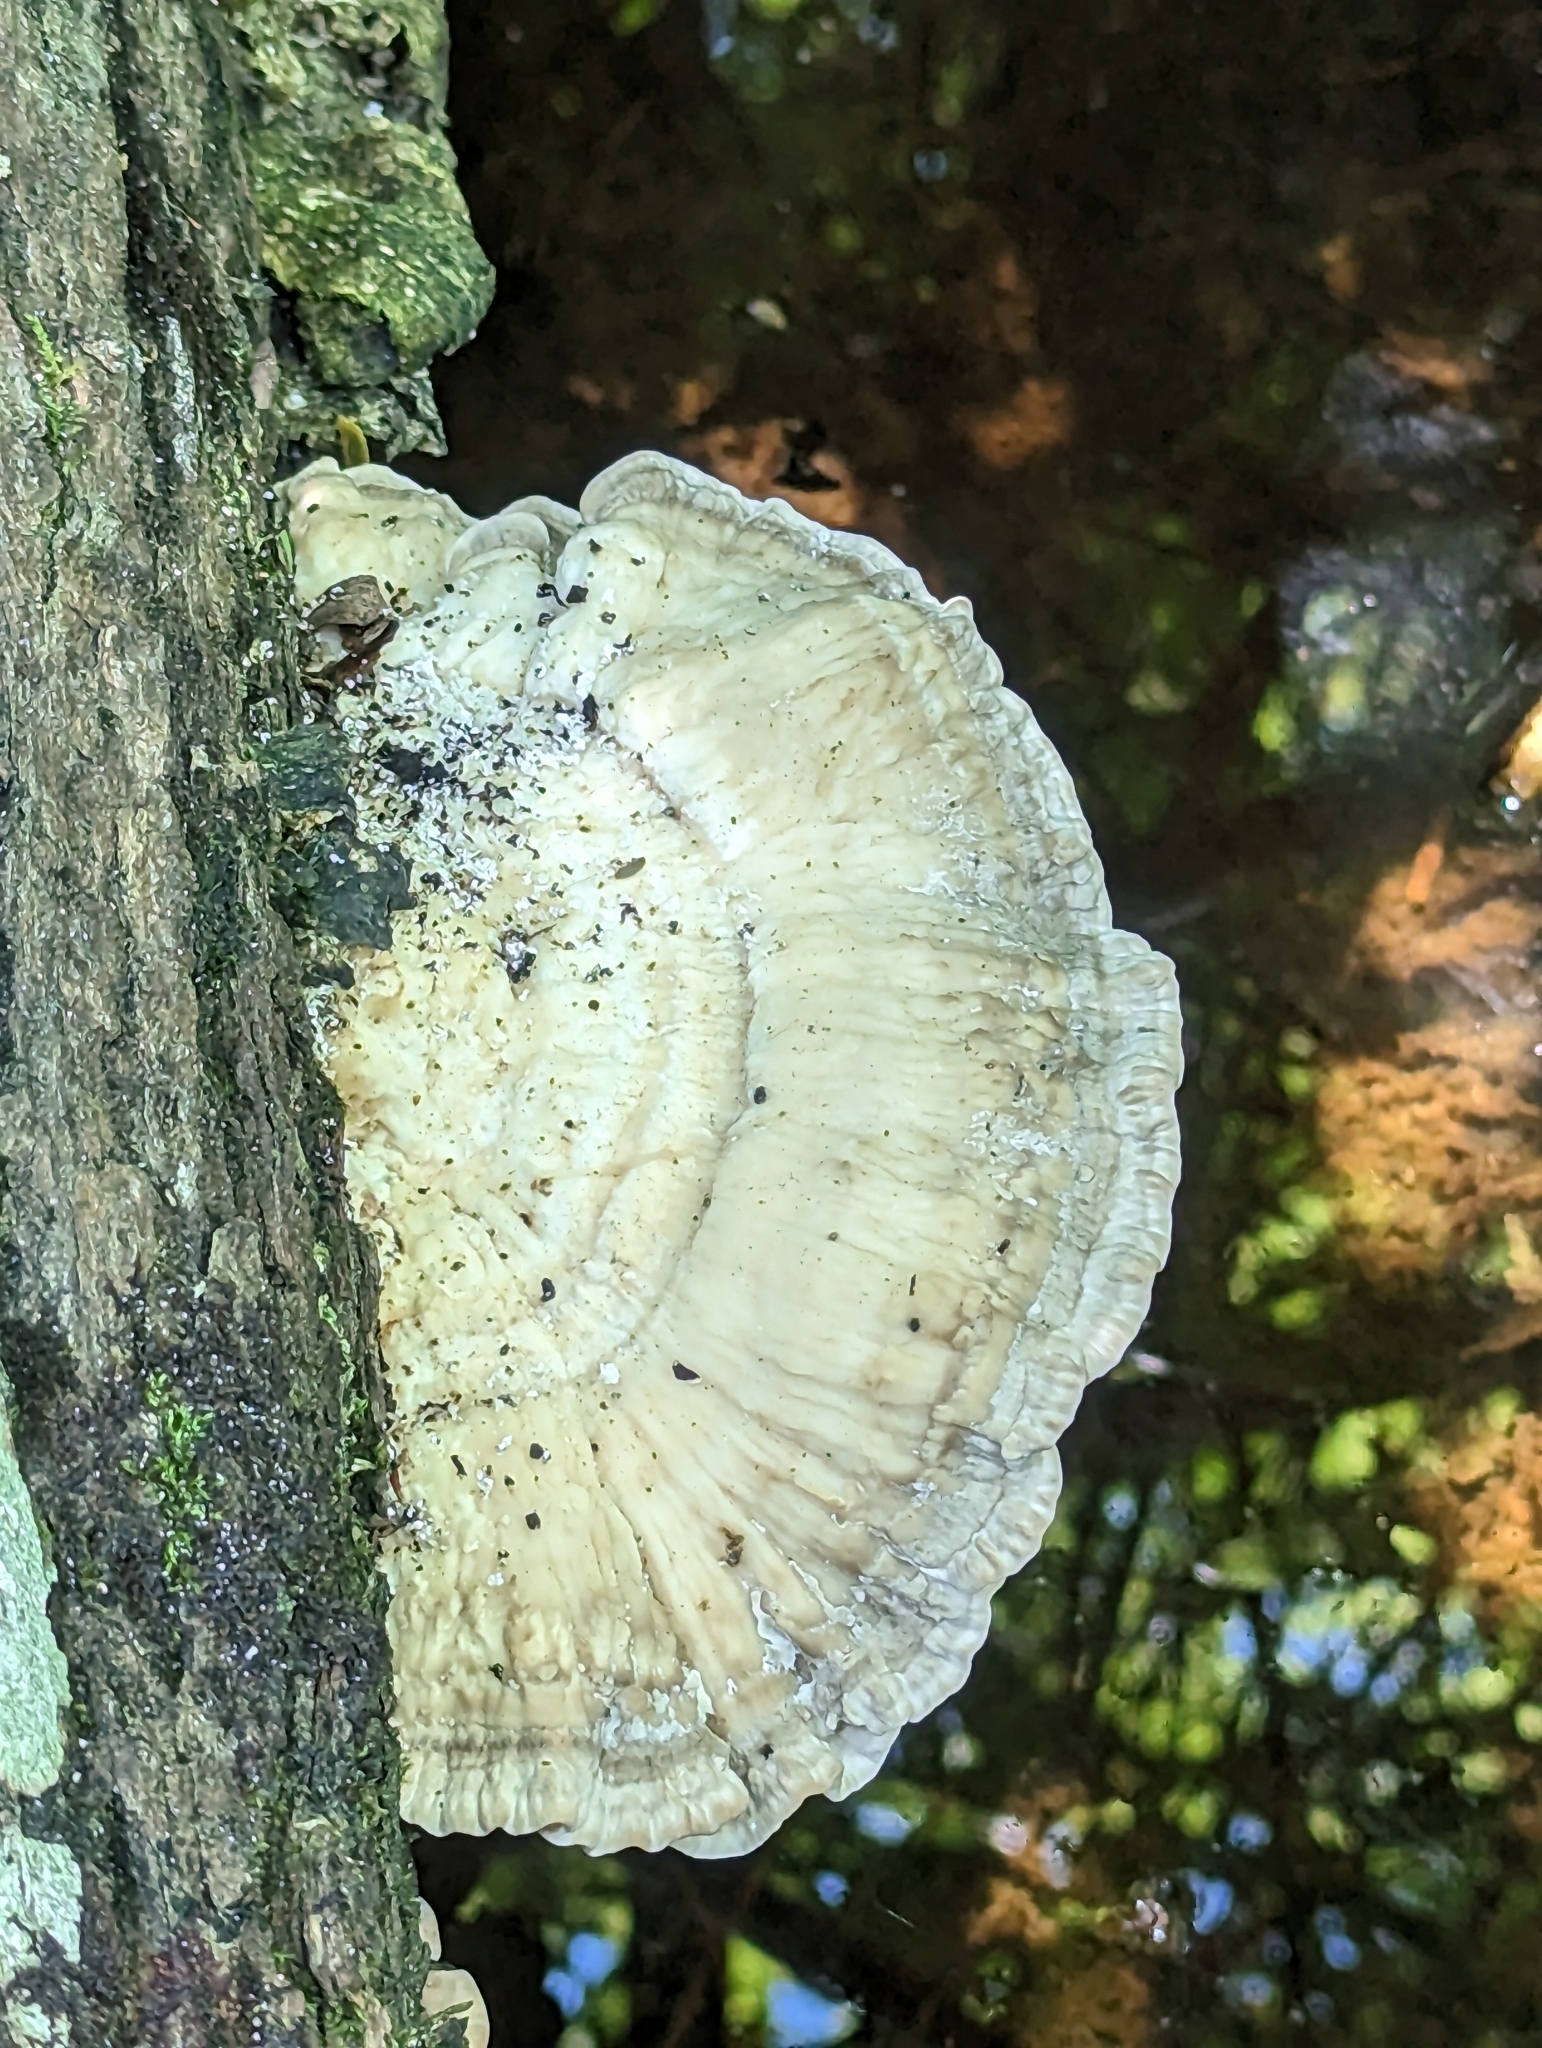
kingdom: Fungi
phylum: Basidiomycota
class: Agaricomycetes
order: Polyporales
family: Polyporaceae
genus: Trametes
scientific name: Trametes lactinea
